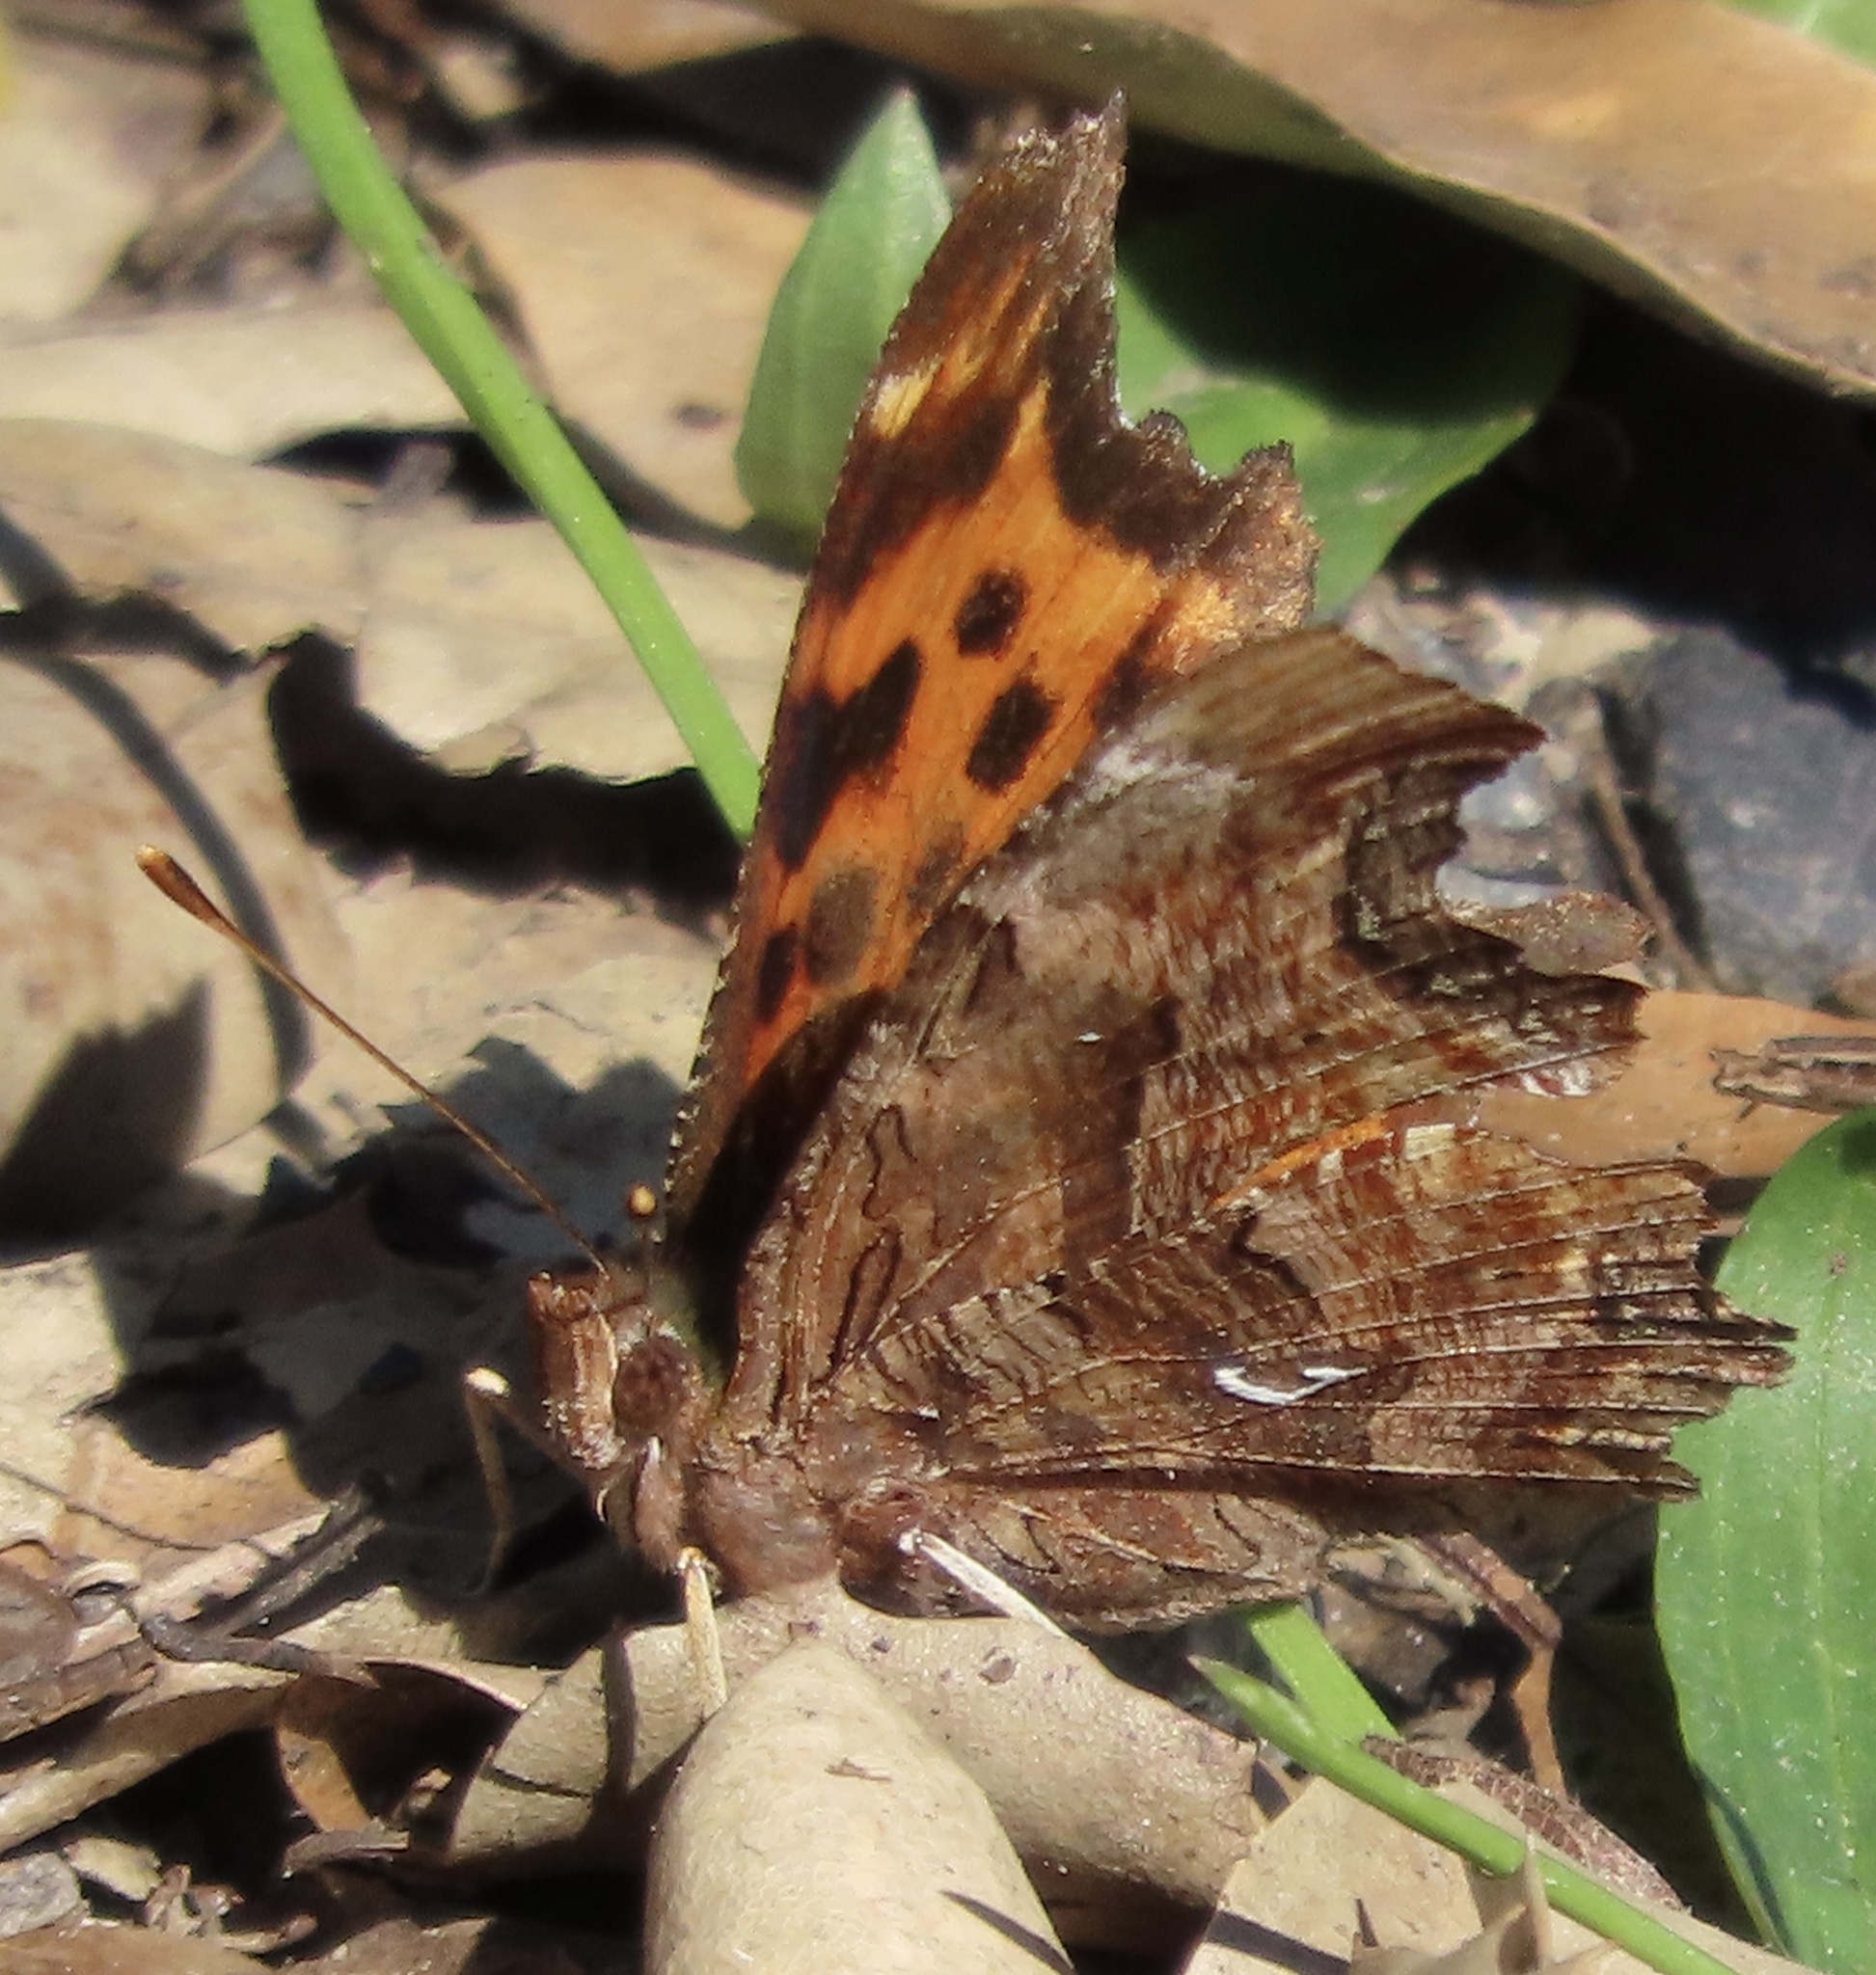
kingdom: Animalia
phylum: Arthropoda
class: Insecta
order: Lepidoptera
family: Nymphalidae
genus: Polygonia
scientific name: Polygonia satyrus
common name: Satyr angle wing
